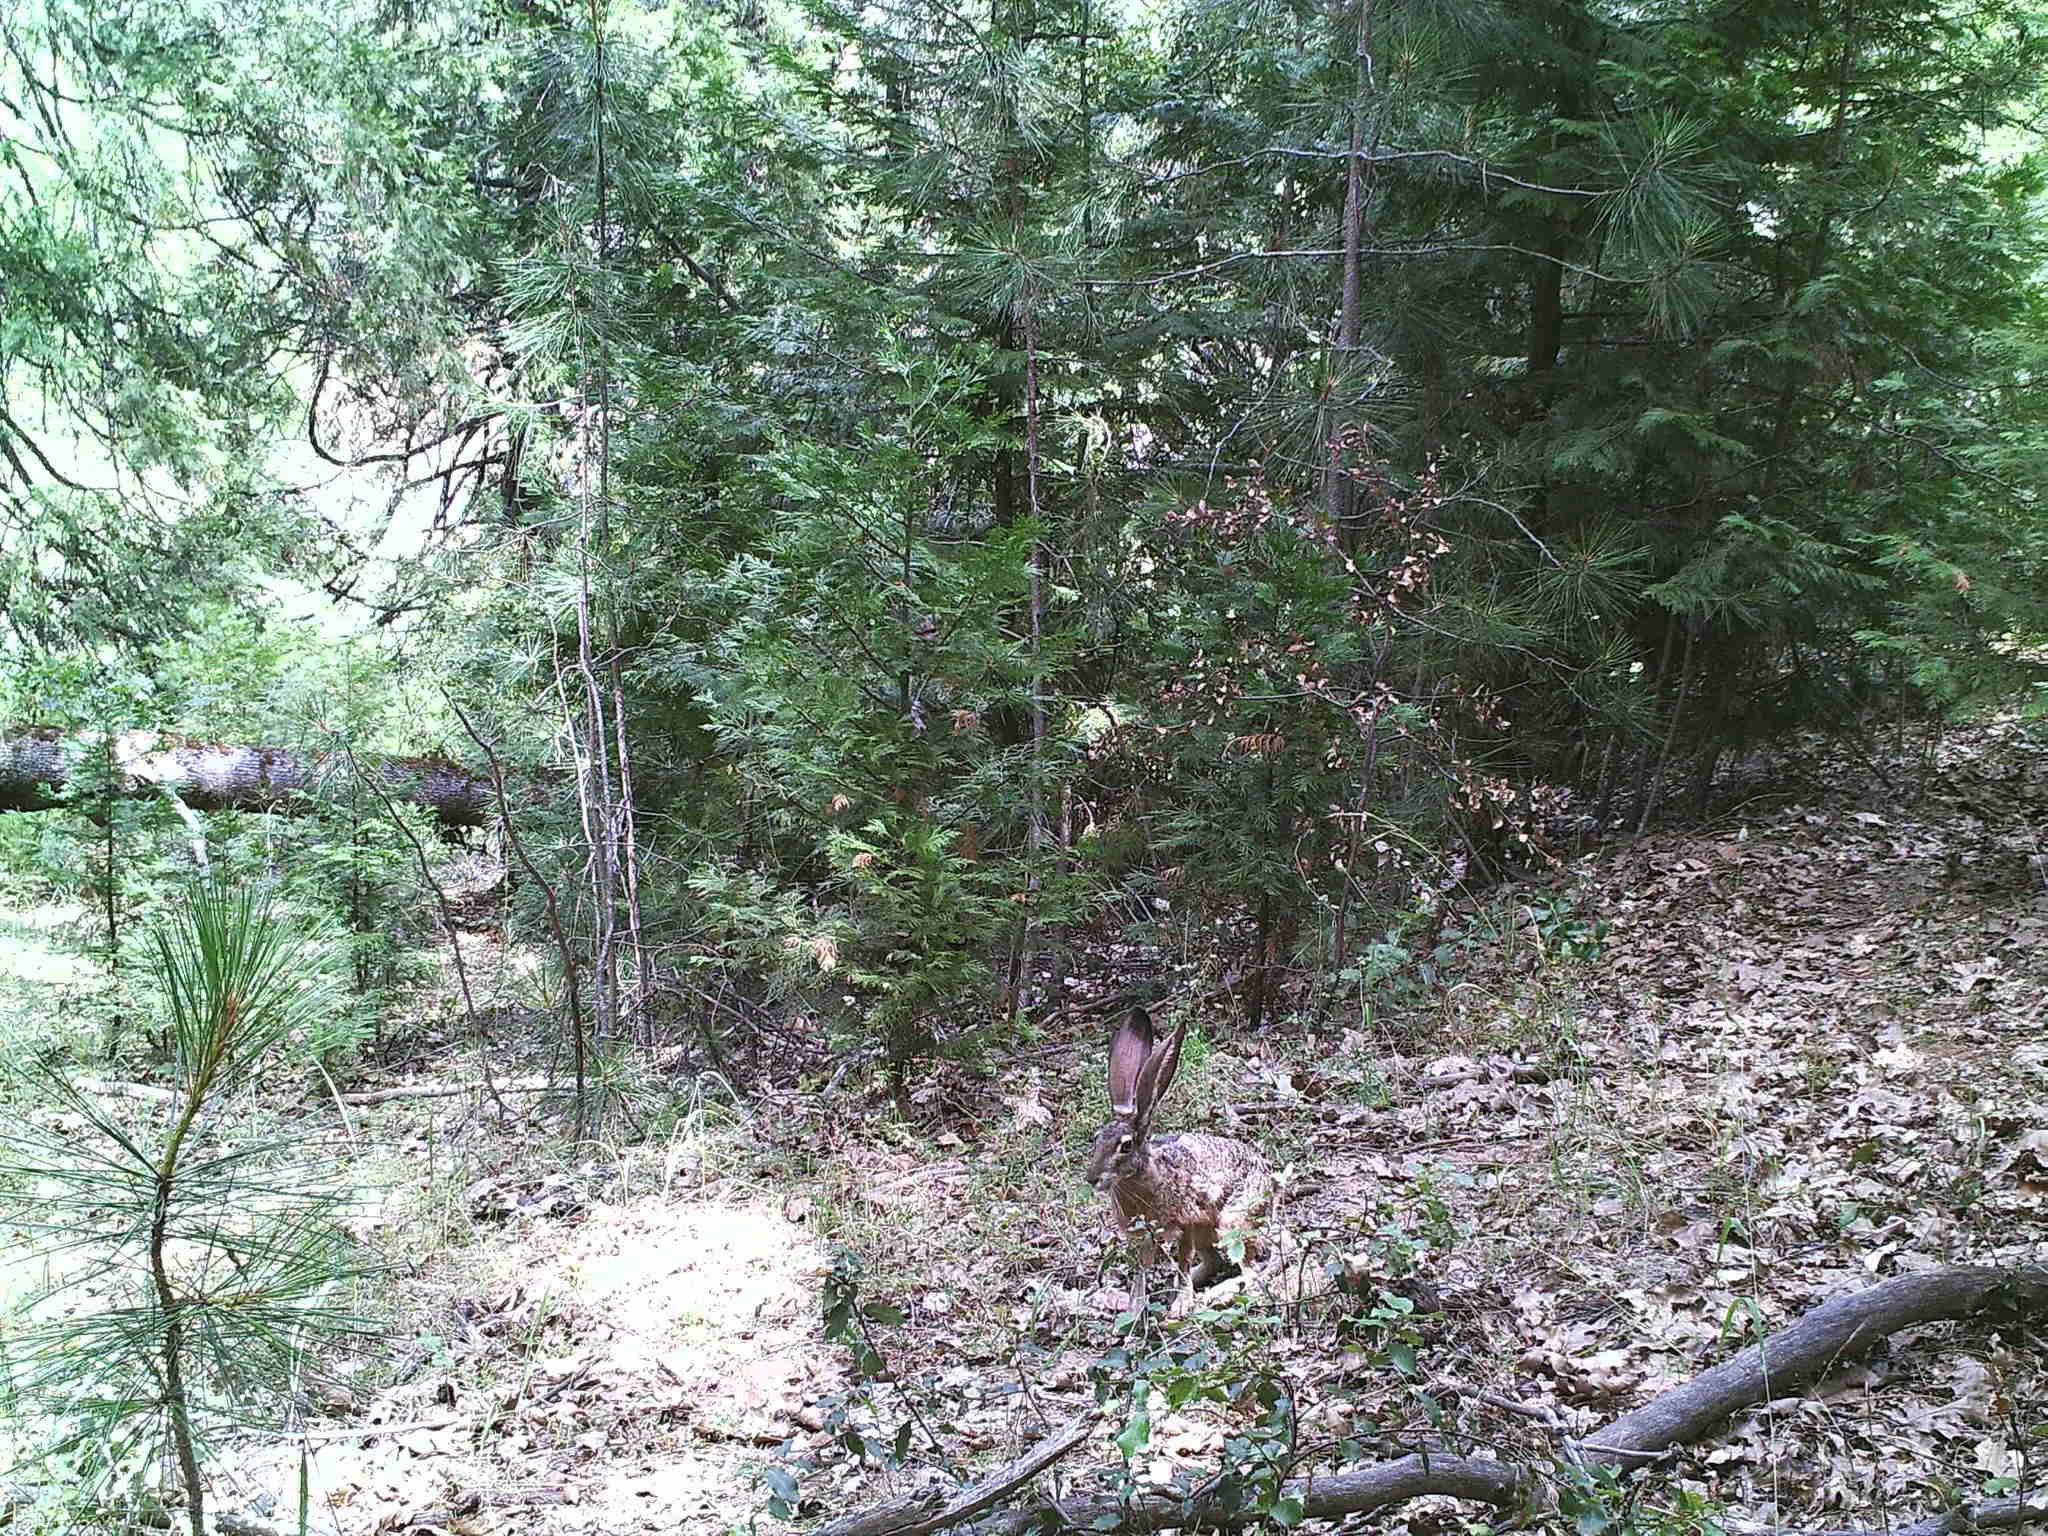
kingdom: Animalia
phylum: Chordata
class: Mammalia
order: Lagomorpha
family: Leporidae
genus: Lepus
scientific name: Lepus californicus
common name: Black-tailed jackrabbit
